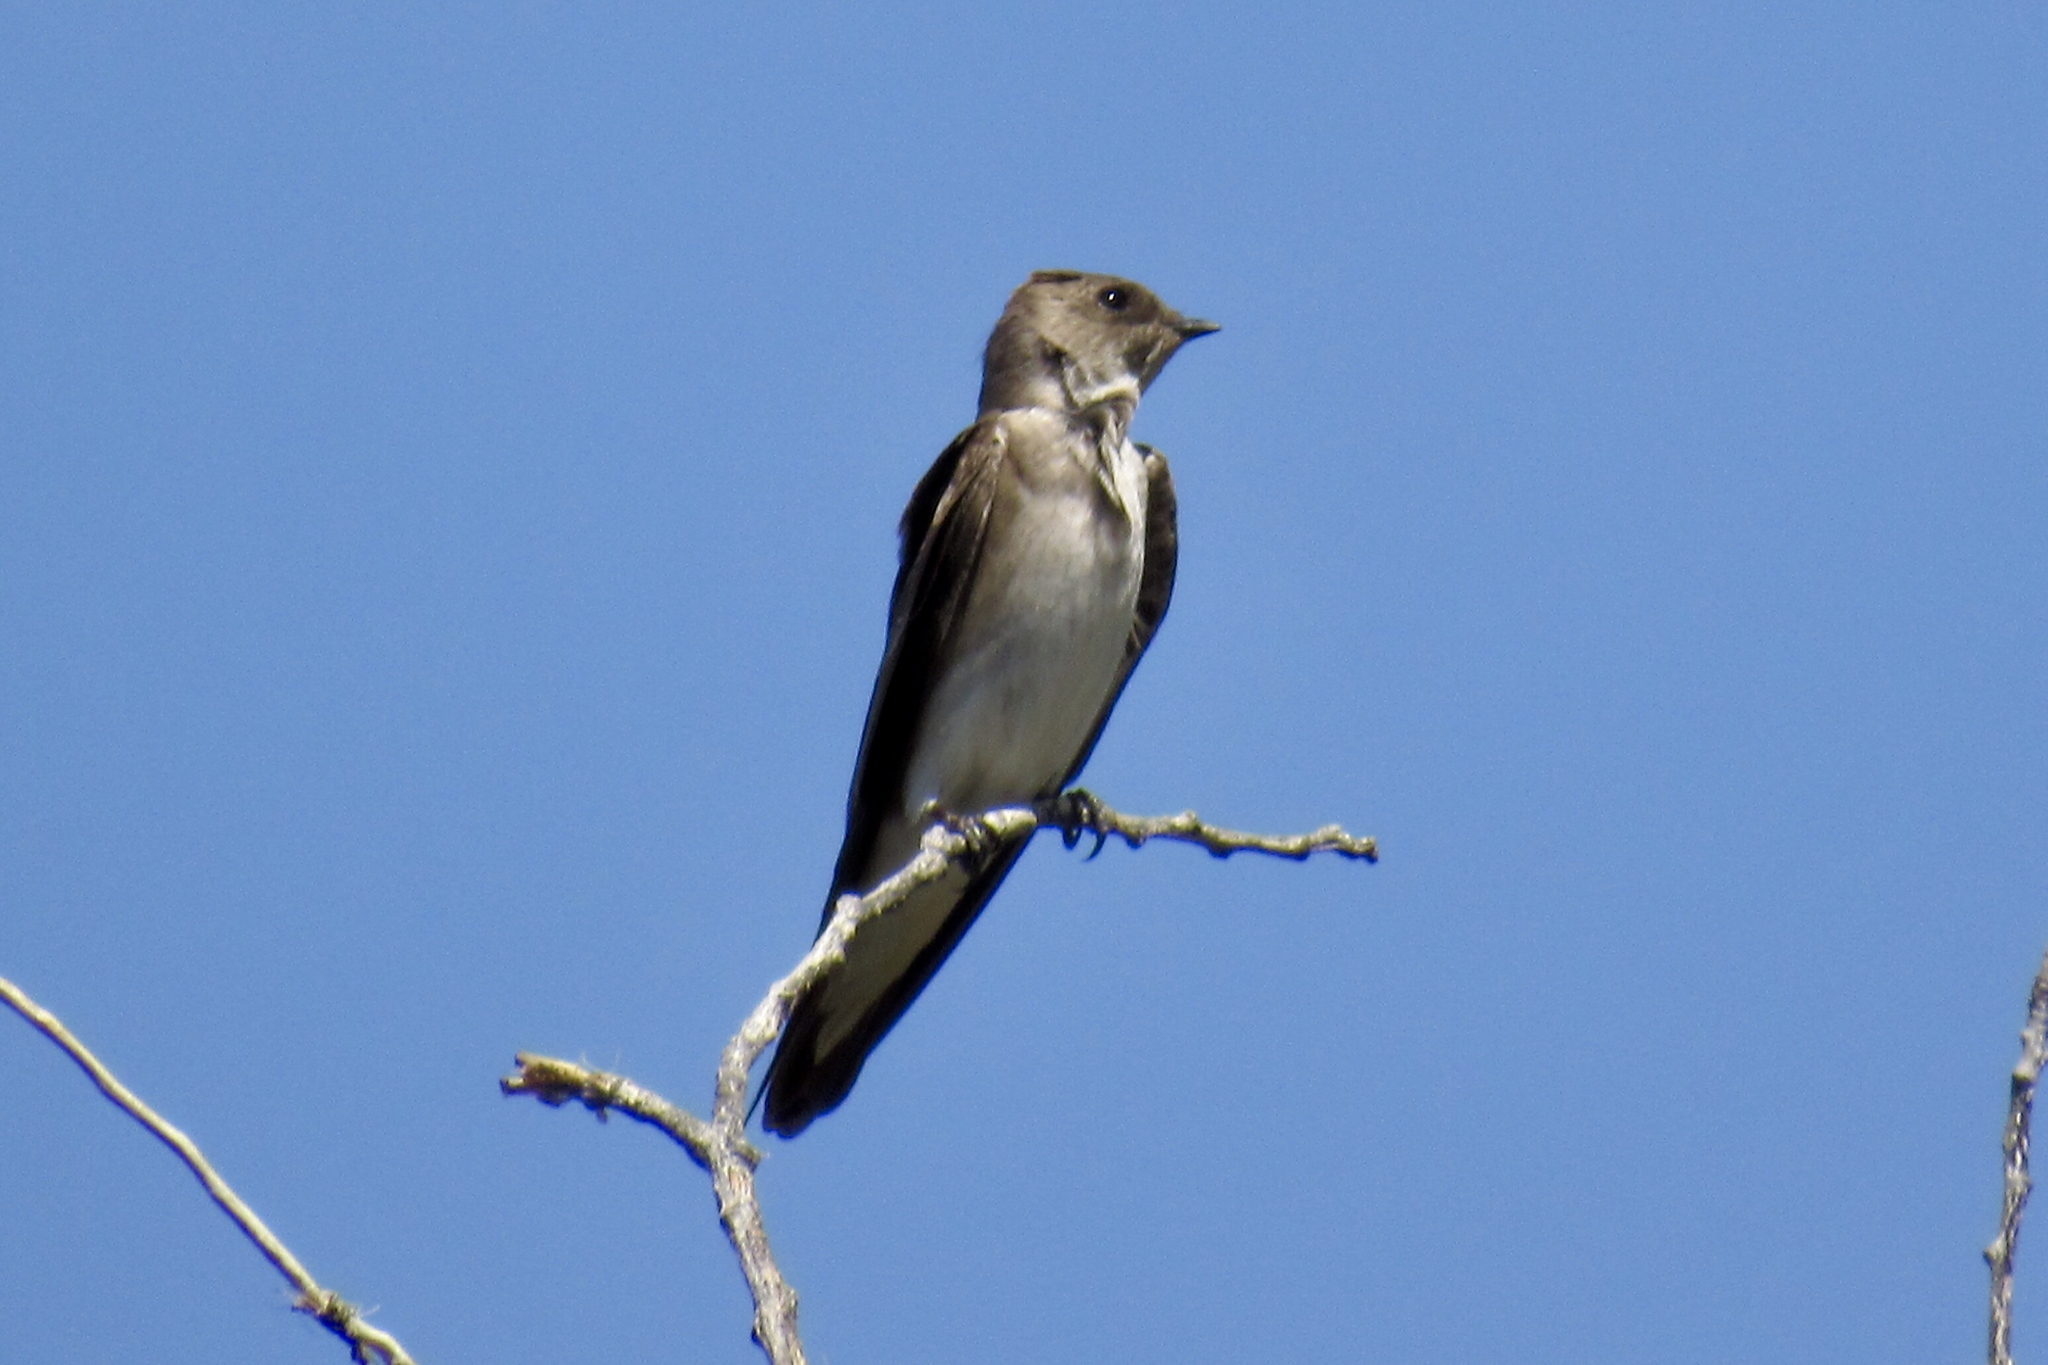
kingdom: Animalia
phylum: Chordata
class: Aves
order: Passeriformes
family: Hirundinidae
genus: Stelgidopteryx
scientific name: Stelgidopteryx serripennis
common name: Northern rough-winged swallow
